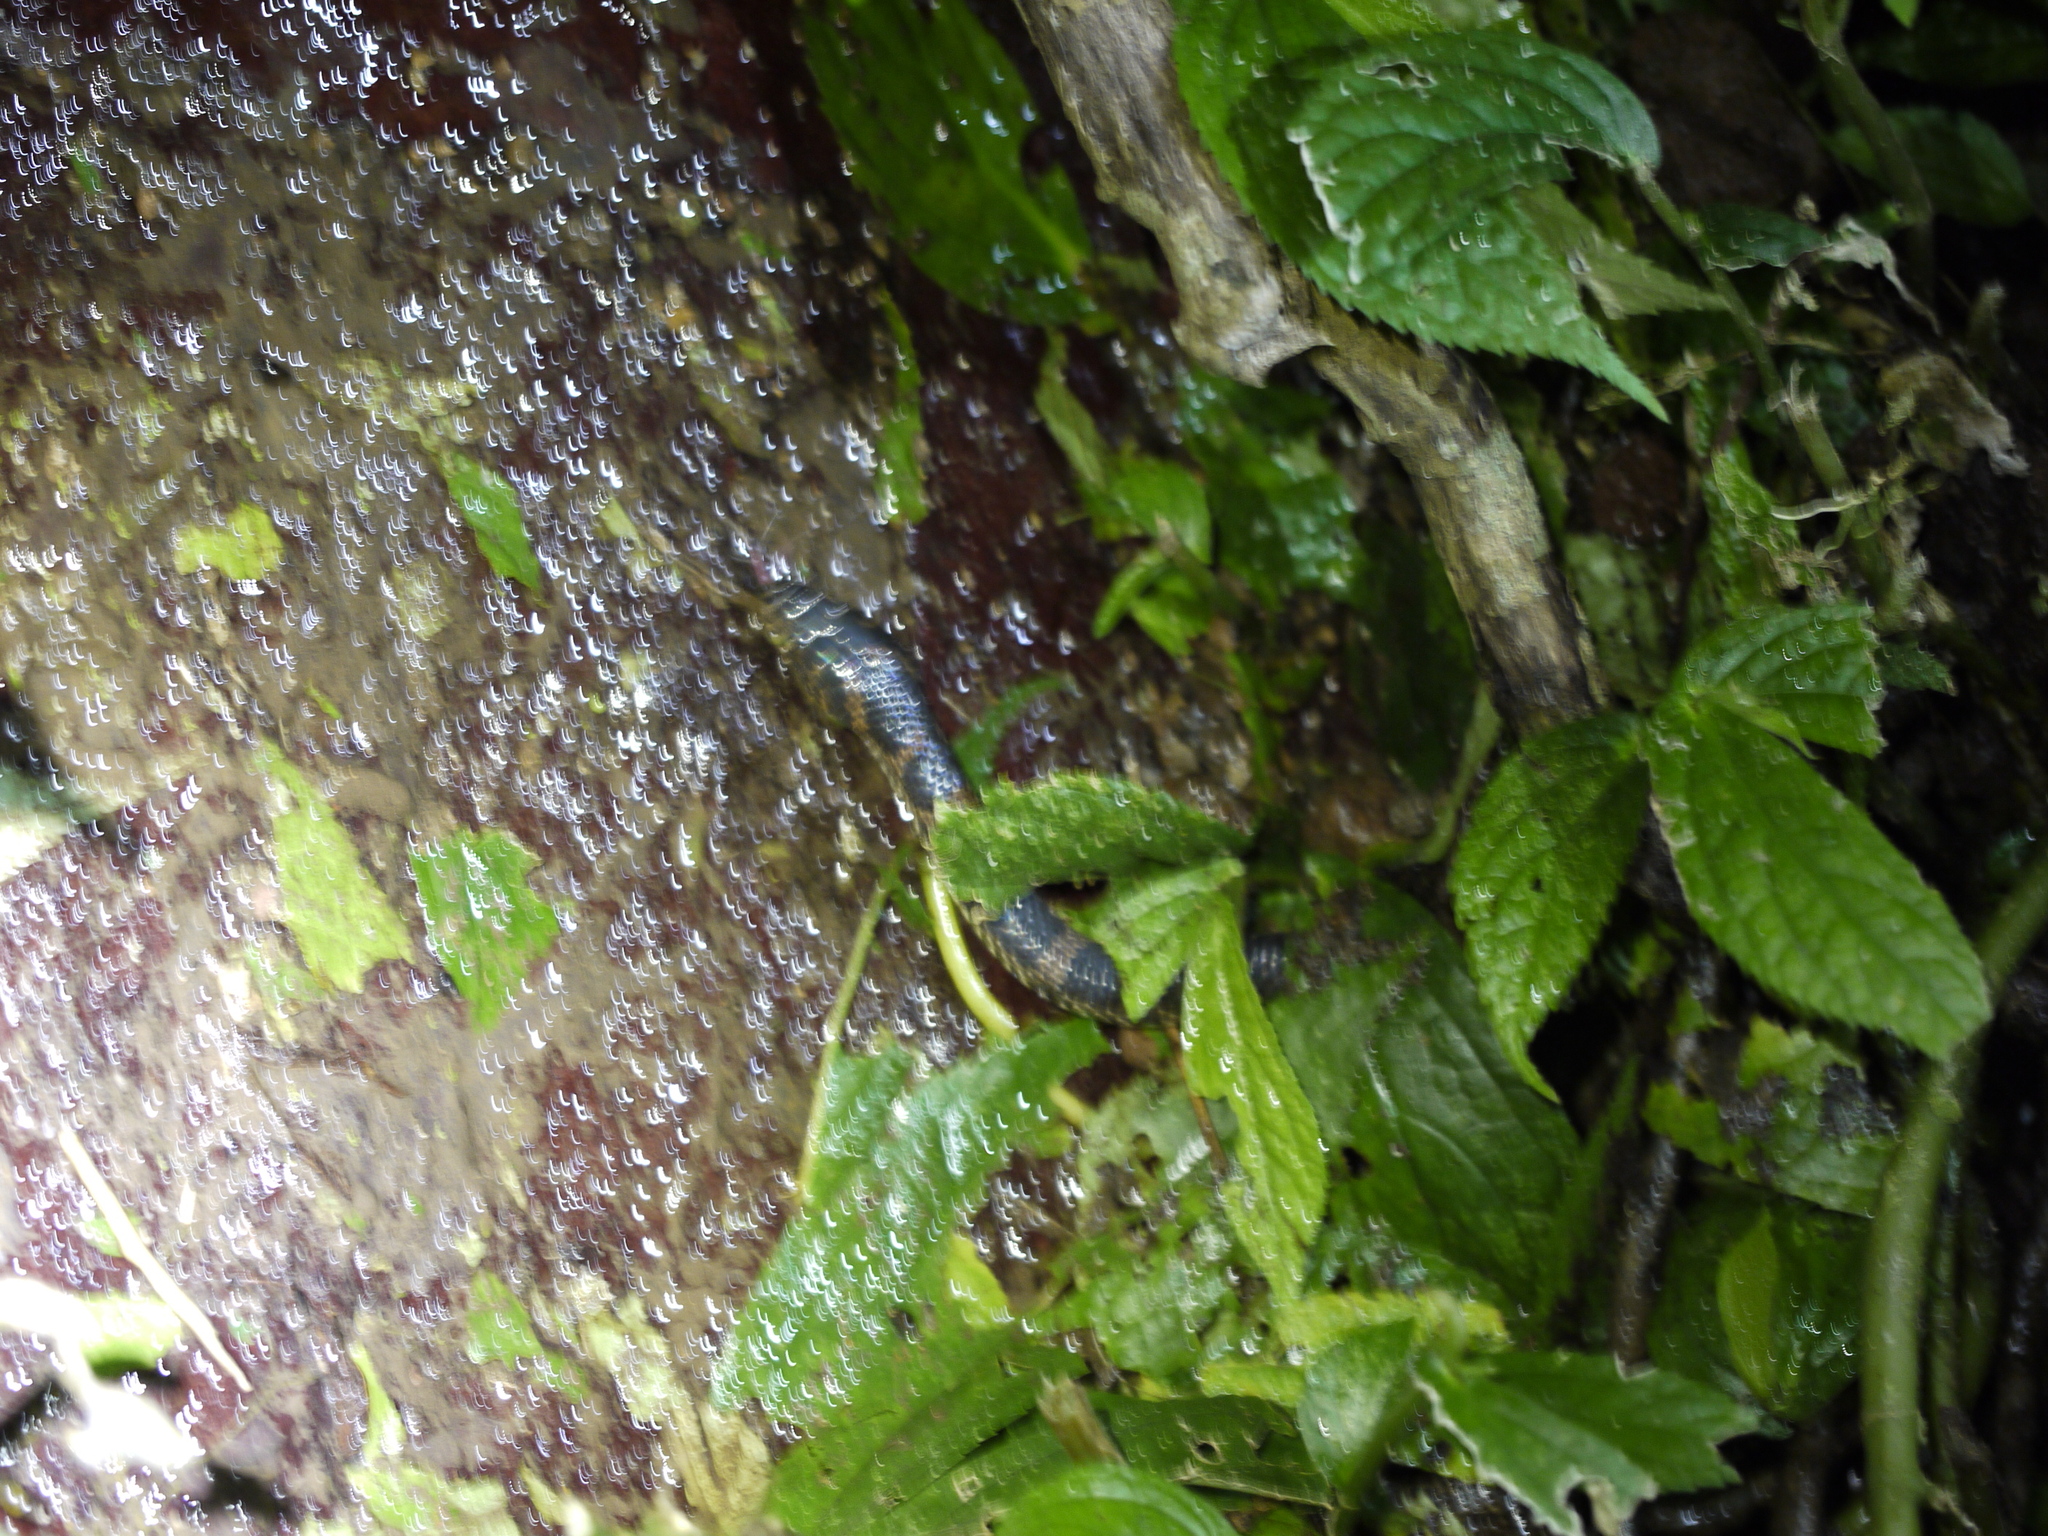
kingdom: Animalia
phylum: Chordata
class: Squamata
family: Colubridae
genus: Lycodon
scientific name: Lycodon rufozonatus
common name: Red-banded snake
